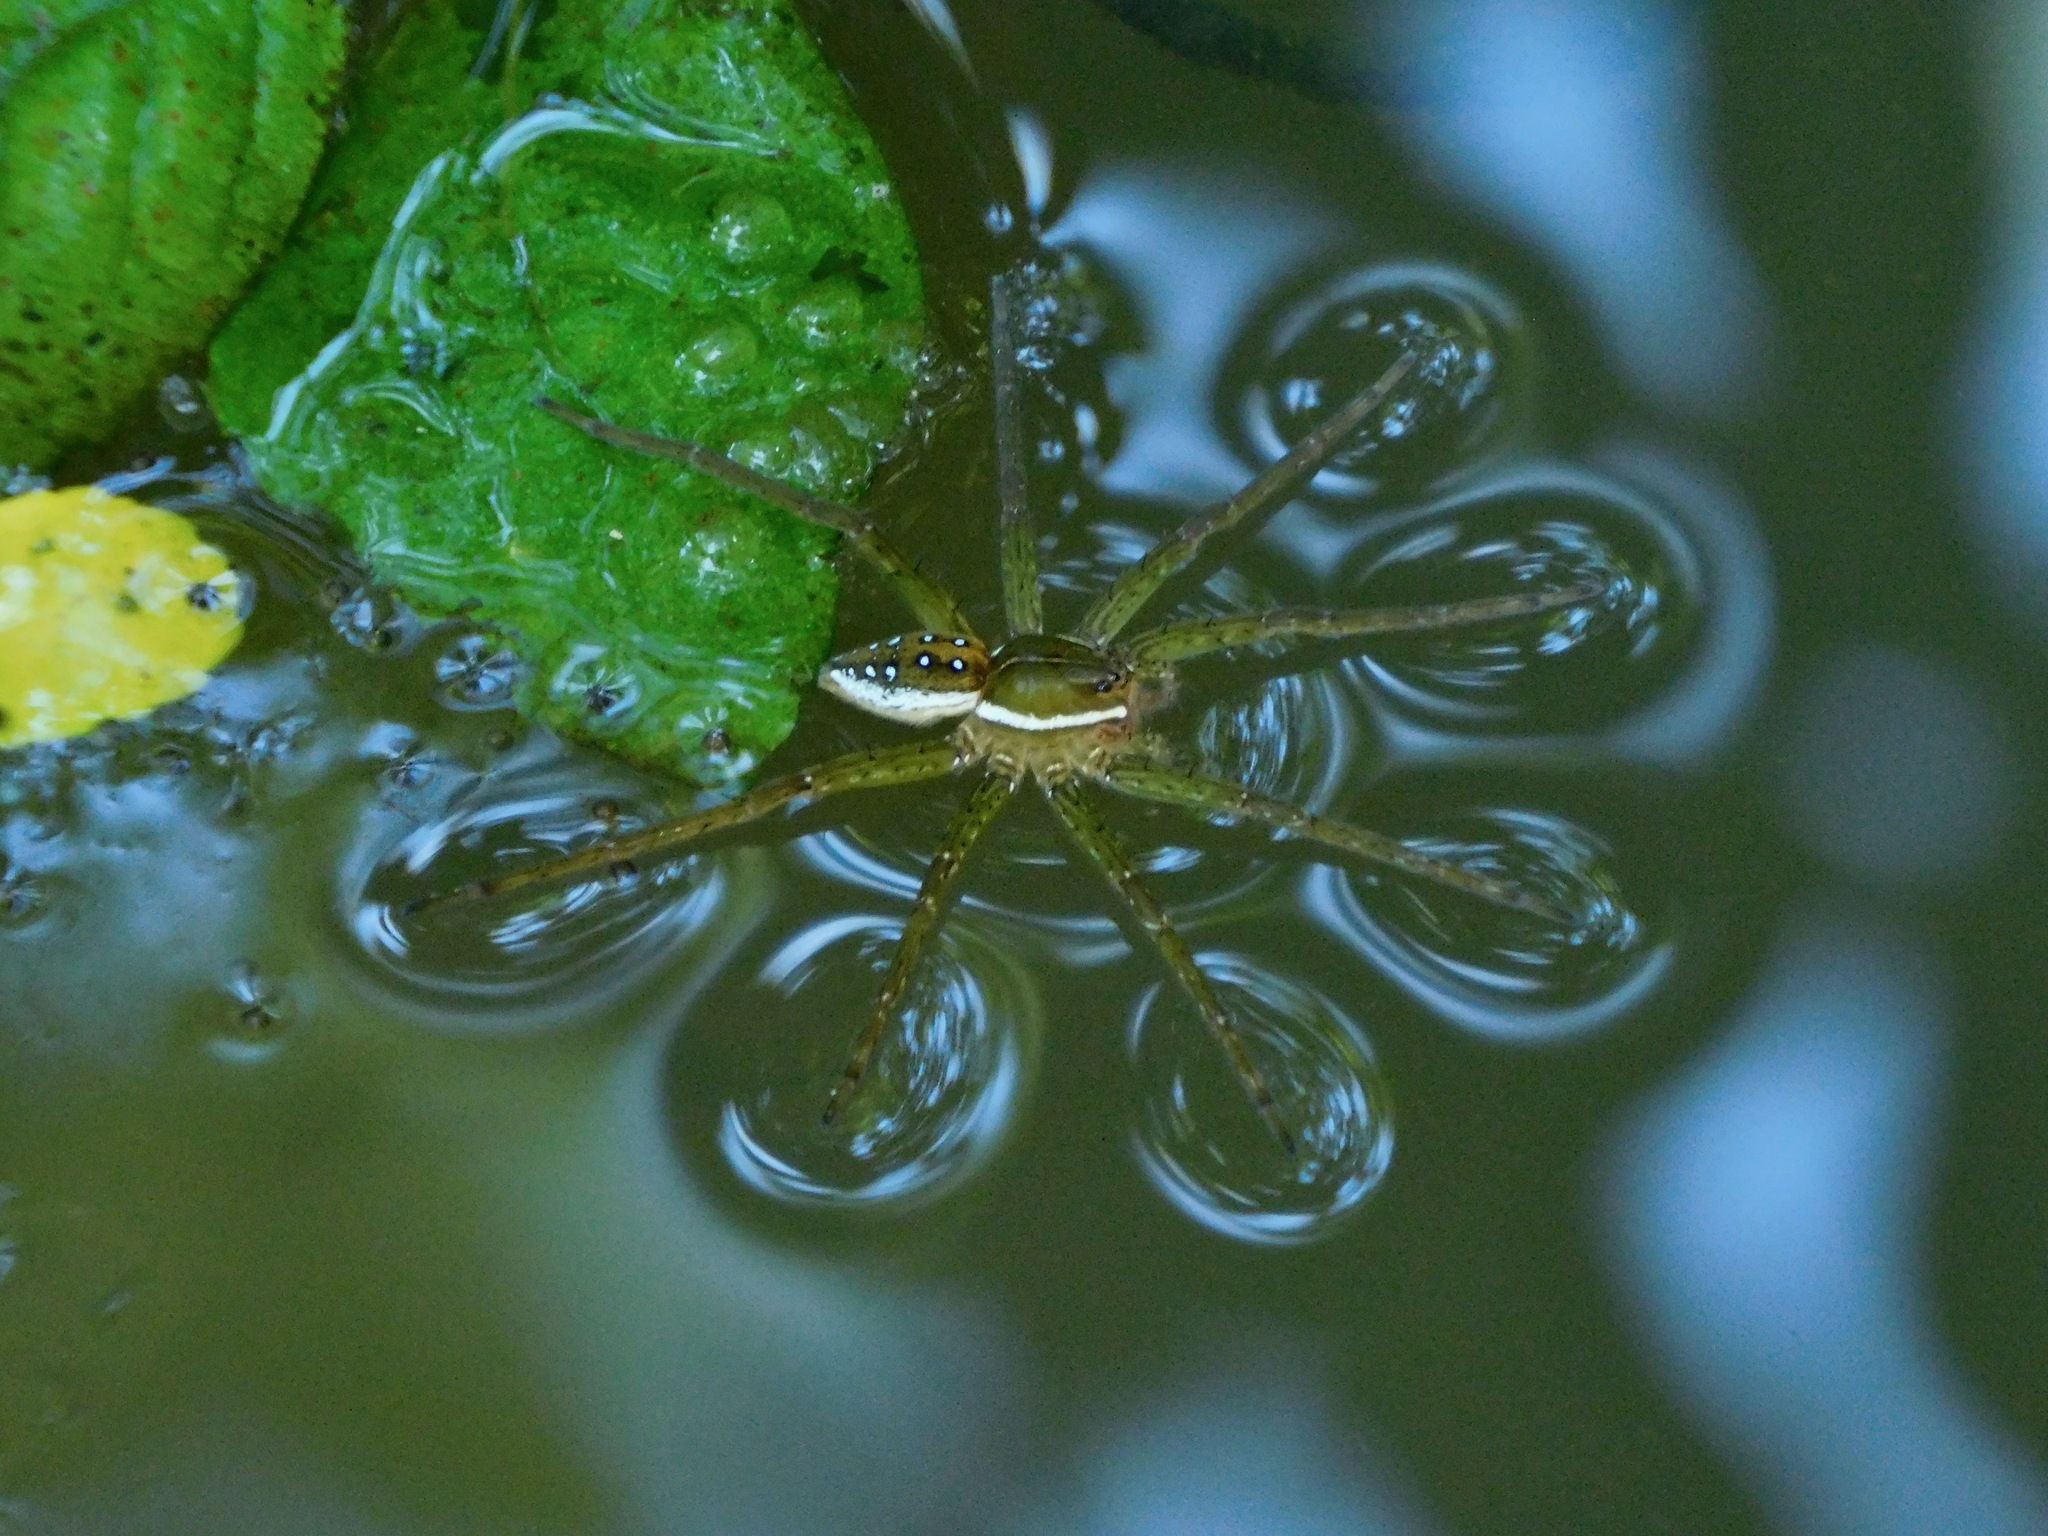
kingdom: Animalia
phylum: Arthropoda
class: Arachnida
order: Araneae
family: Pisauridae
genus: Dolomedes
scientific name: Dolomedes triton
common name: Six-spotted fishing spider
